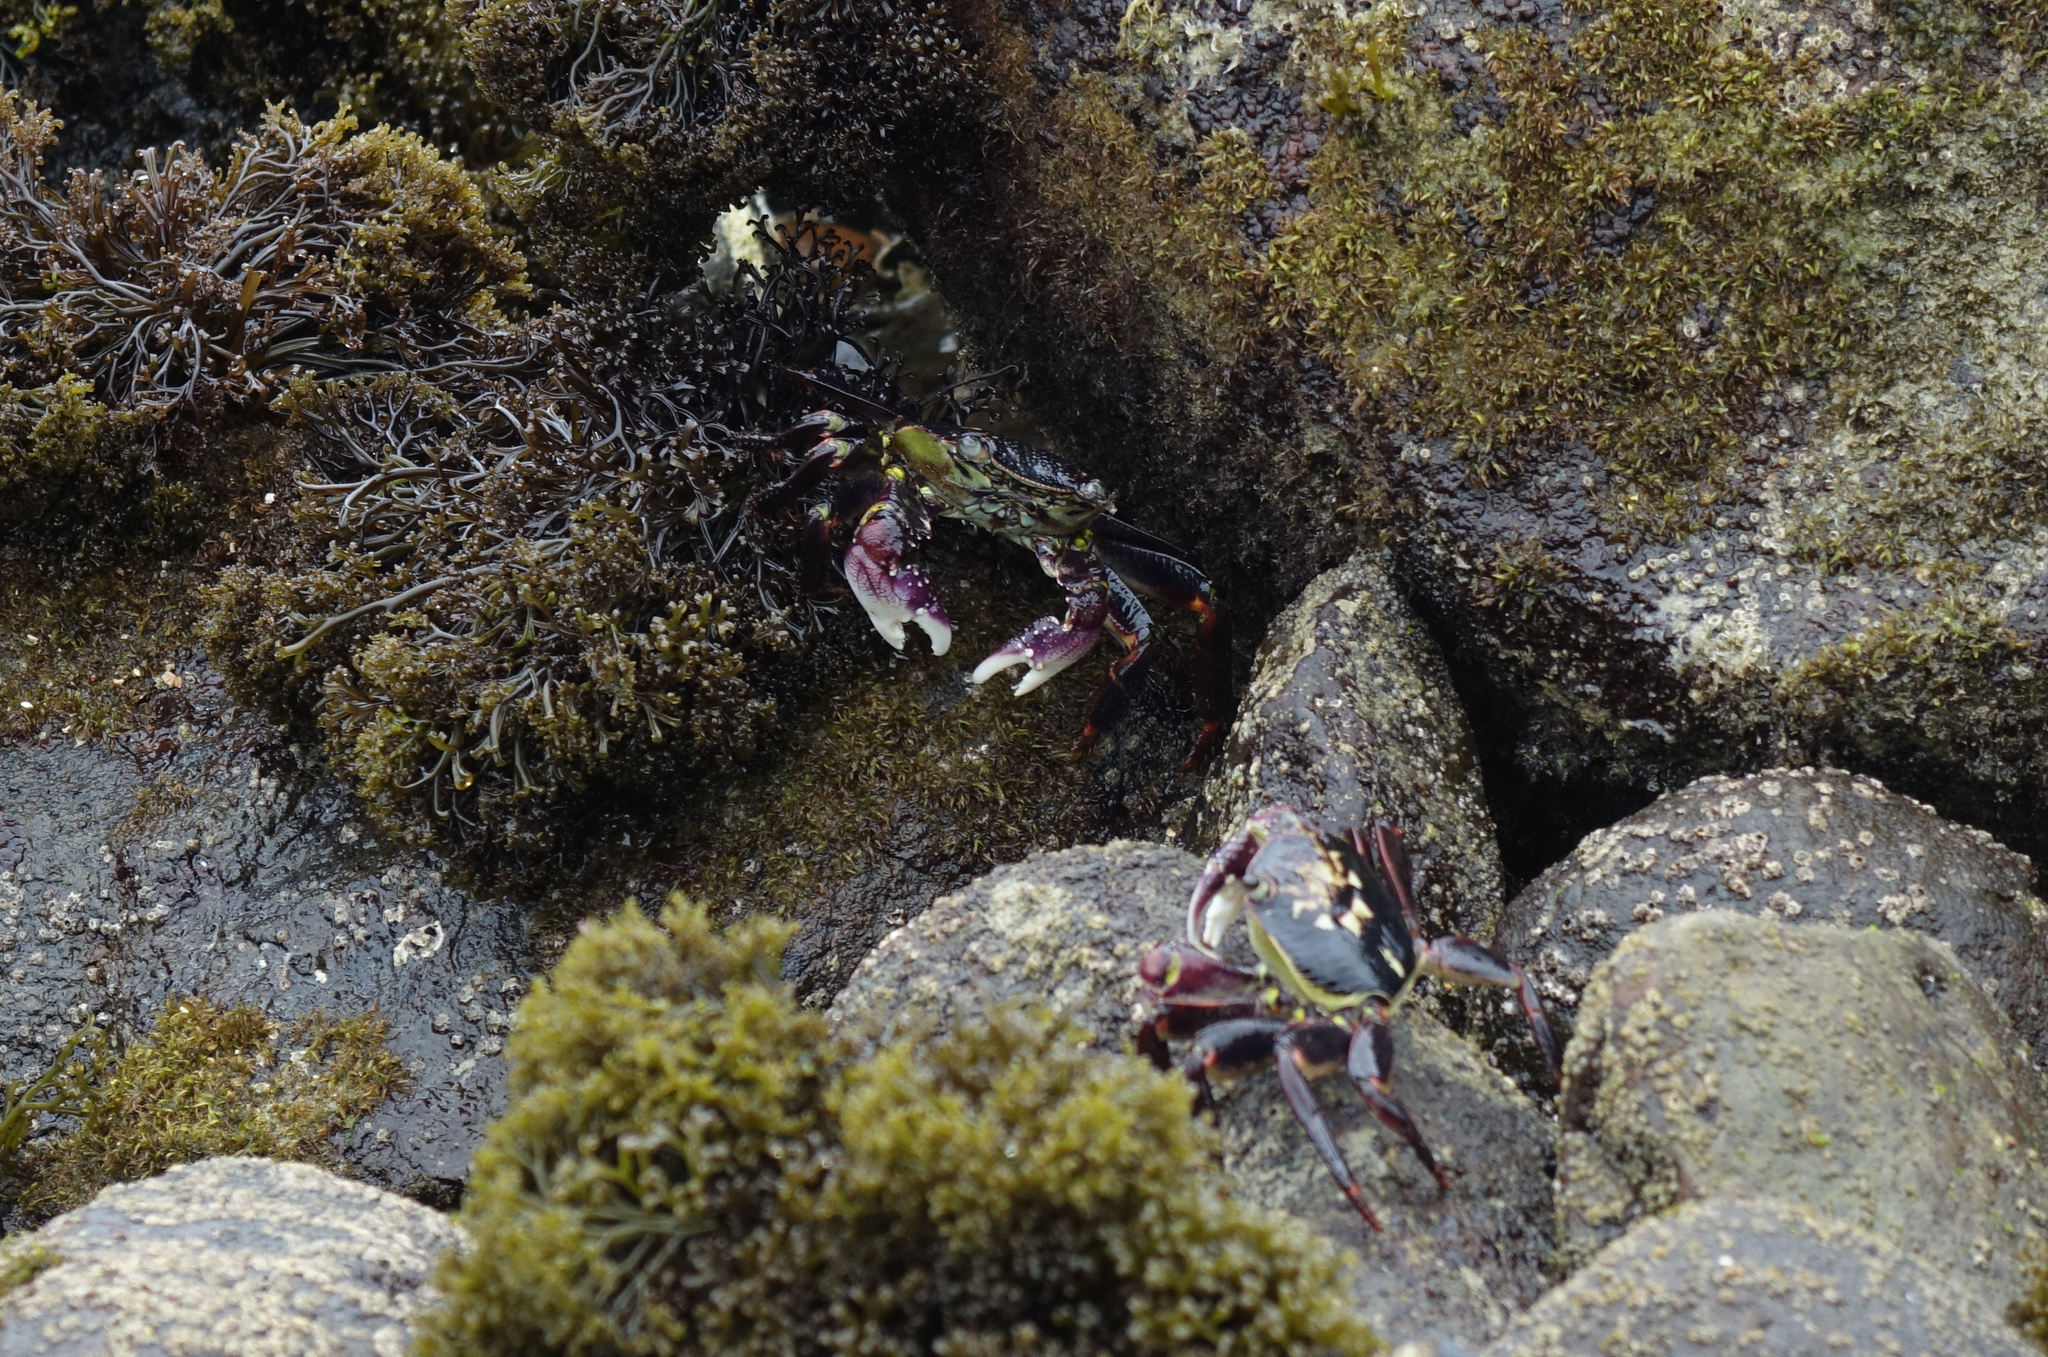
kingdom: Animalia
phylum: Arthropoda
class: Malacostraca
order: Decapoda
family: Grapsidae
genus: Leptograpsus
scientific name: Leptograpsus variegatus
